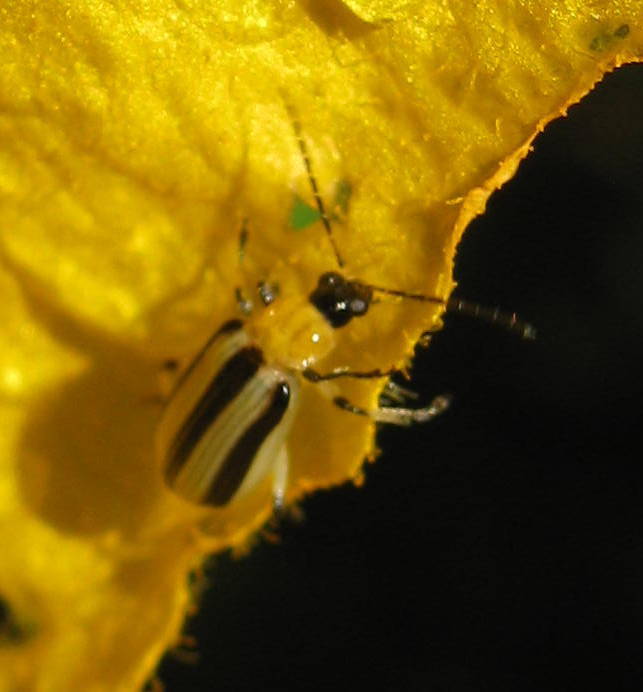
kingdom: Animalia
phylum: Arthropoda
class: Insecta
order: Coleoptera
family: Chrysomelidae
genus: Acalymma
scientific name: Acalymma vittatum
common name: Striped cucumber beetle
